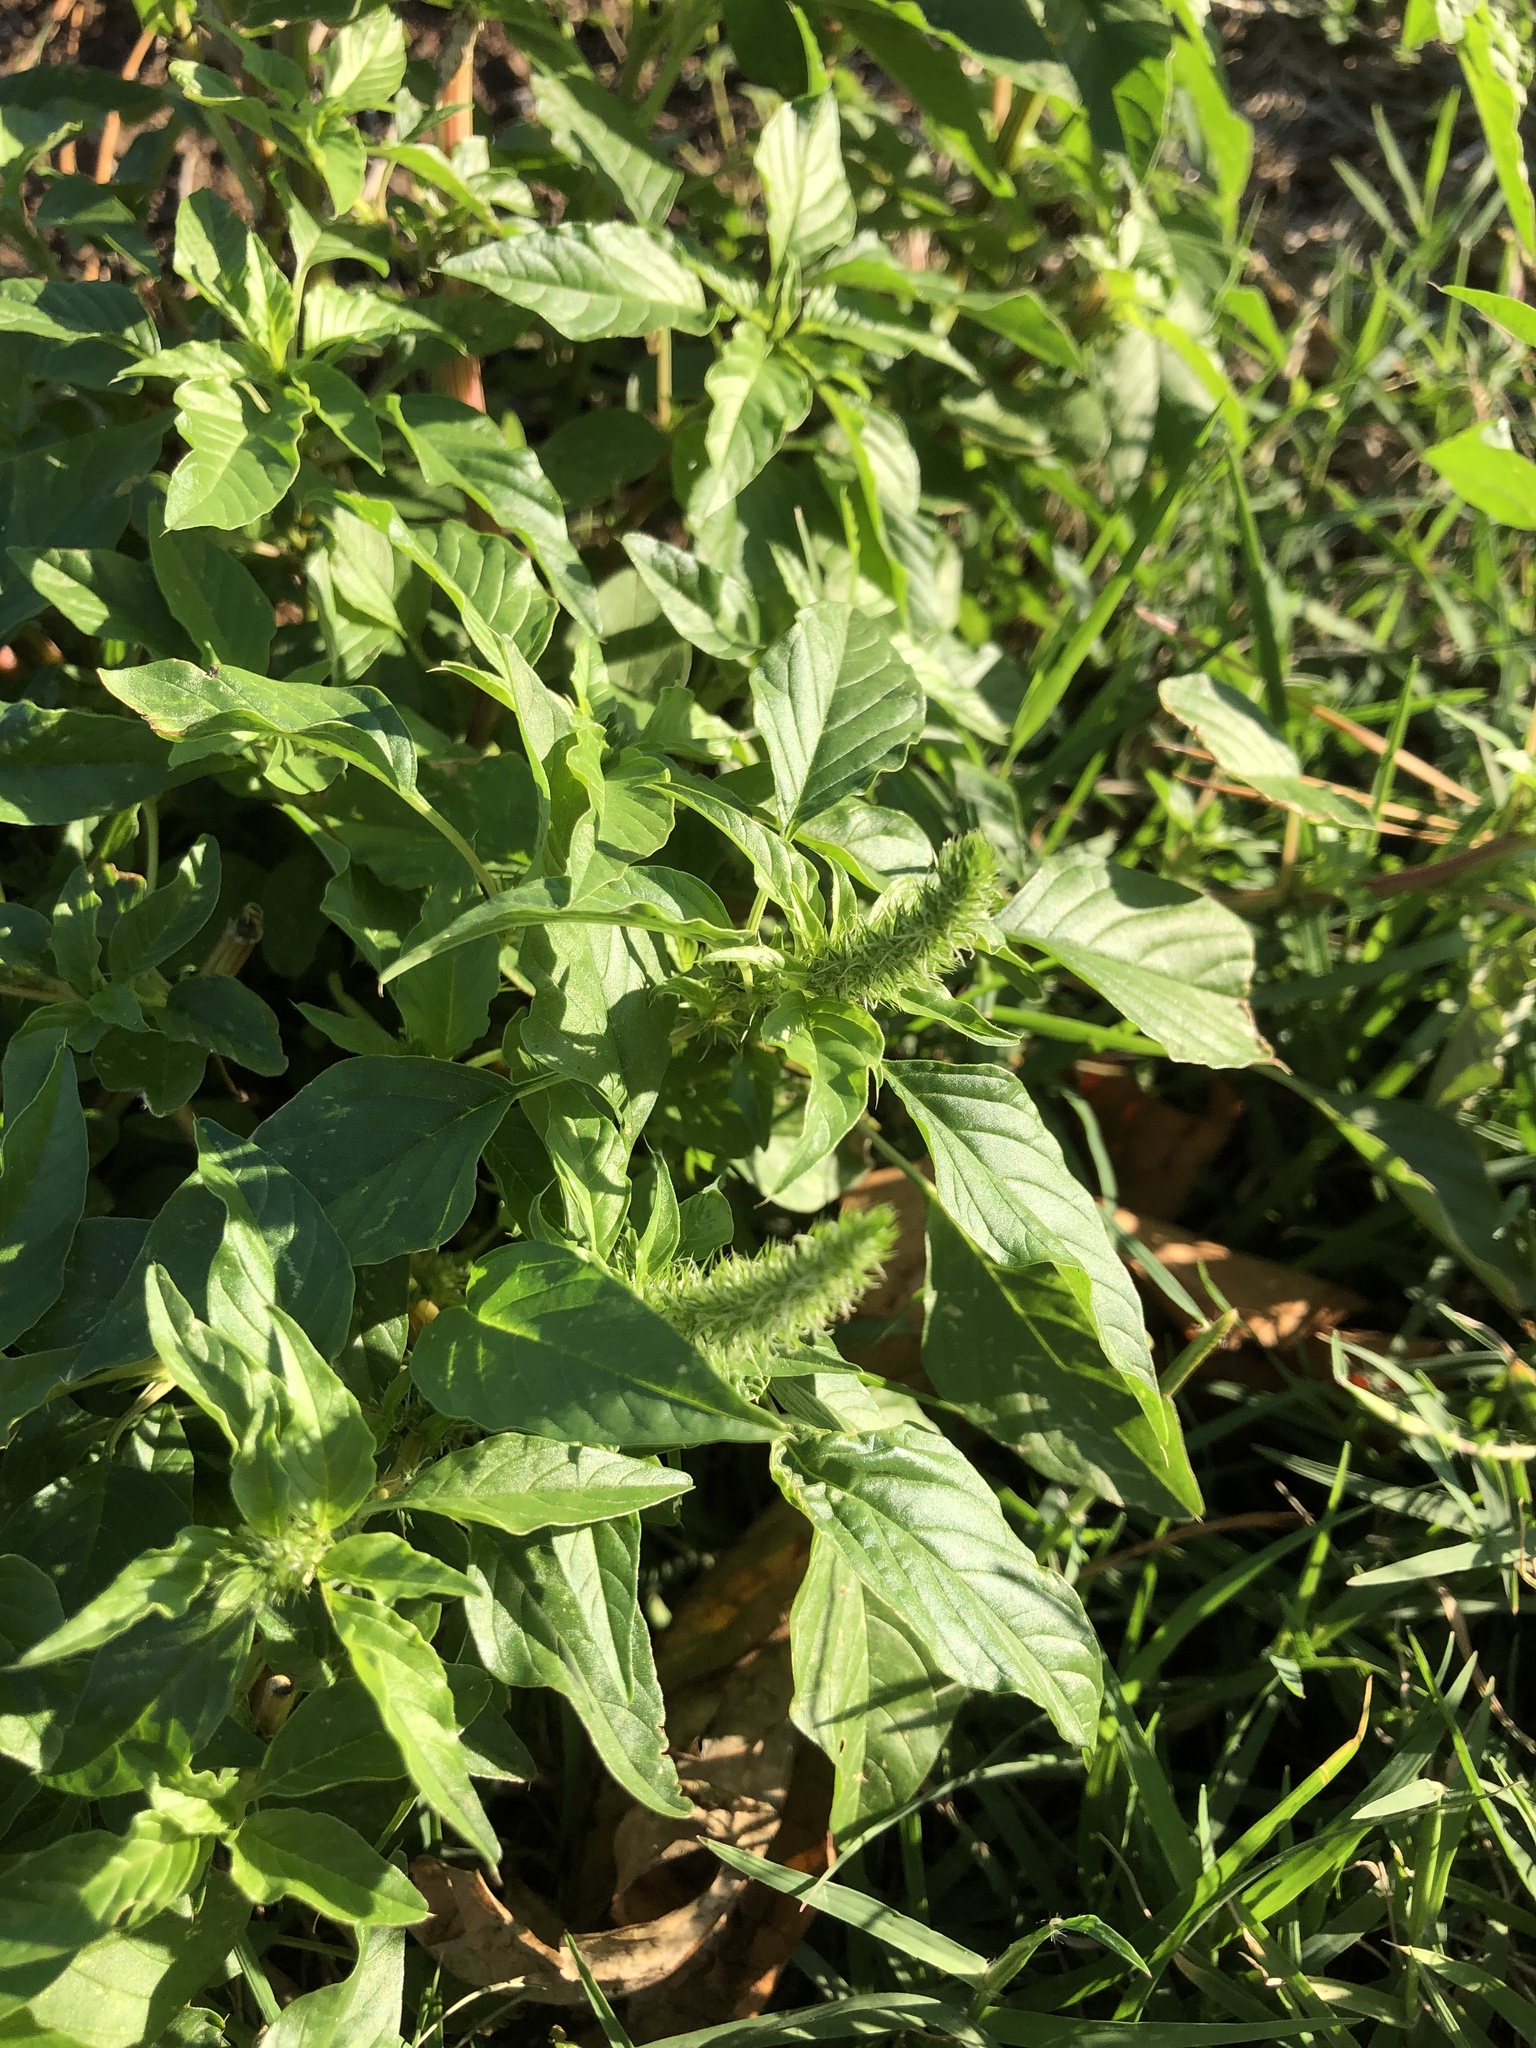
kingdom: Plantae
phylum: Tracheophyta
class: Magnoliopsida
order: Caryophyllales
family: Amaranthaceae
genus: Amaranthus
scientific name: Amaranthus palmeri
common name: Dioecious amaranth
